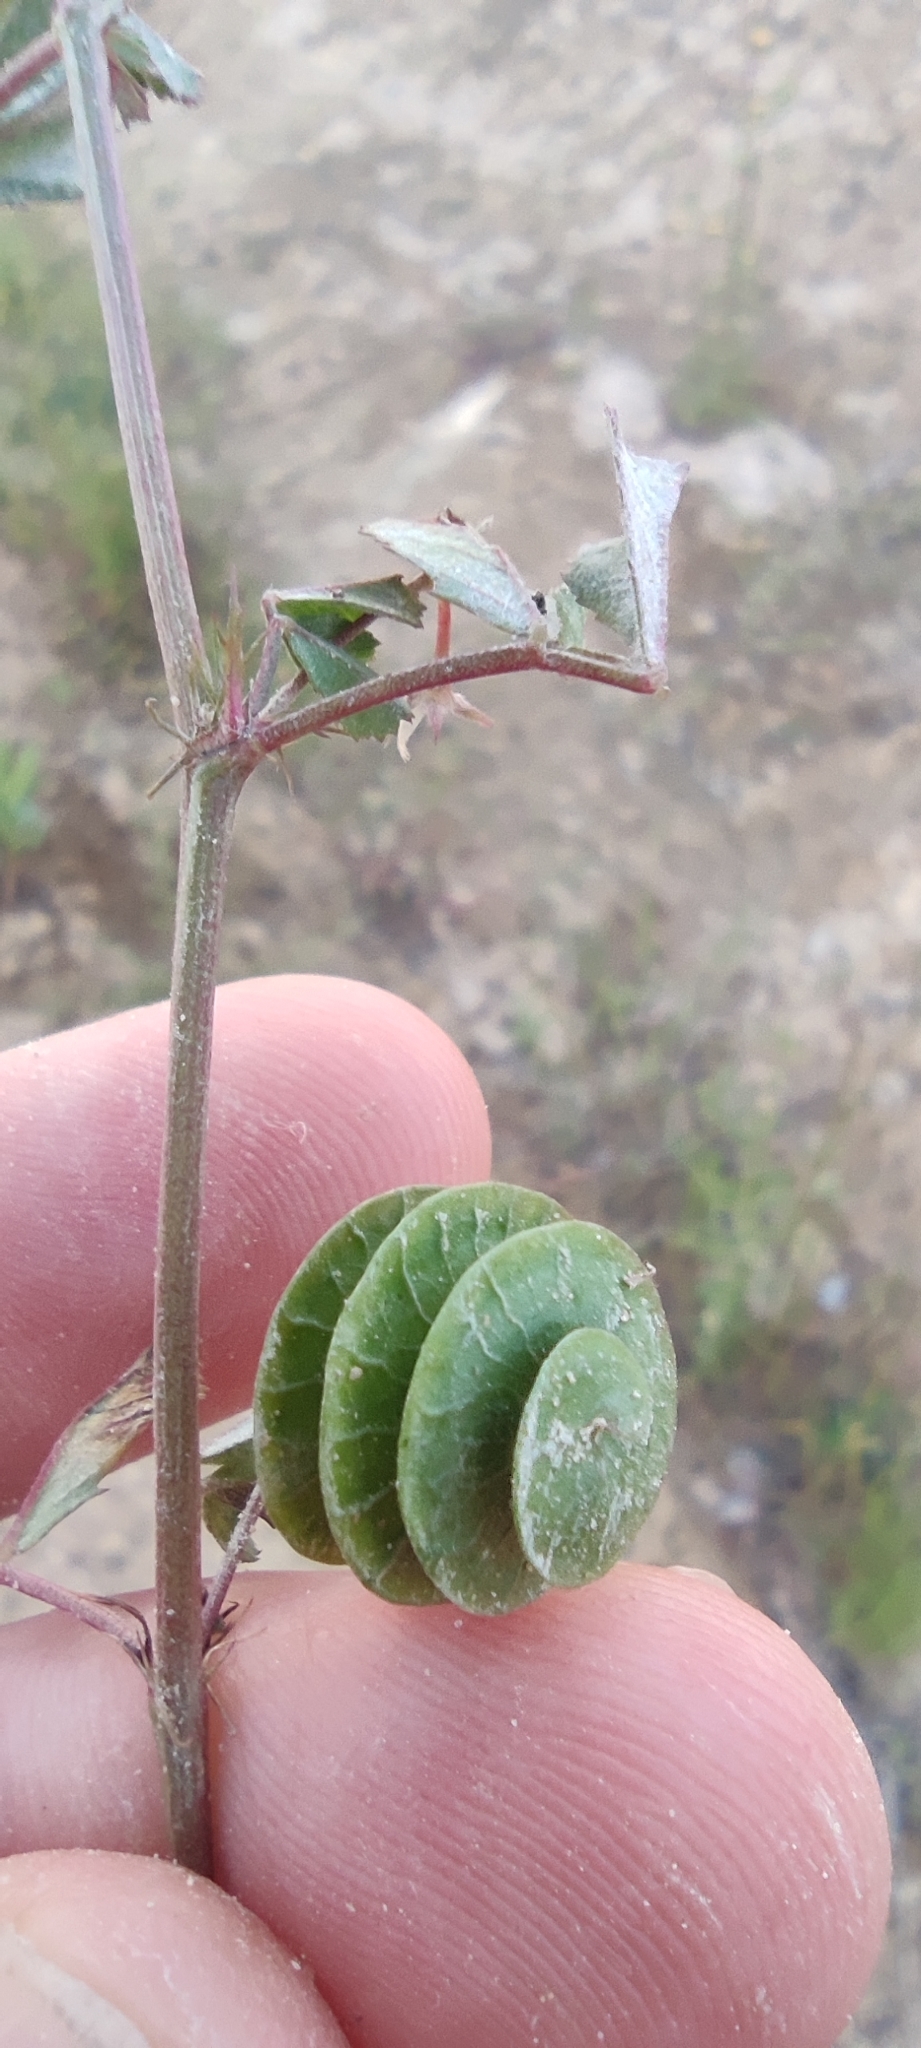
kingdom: Plantae
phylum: Tracheophyta
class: Magnoliopsida
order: Fabales
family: Fabaceae
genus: Medicago
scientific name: Medicago orbicularis
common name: Button medick
